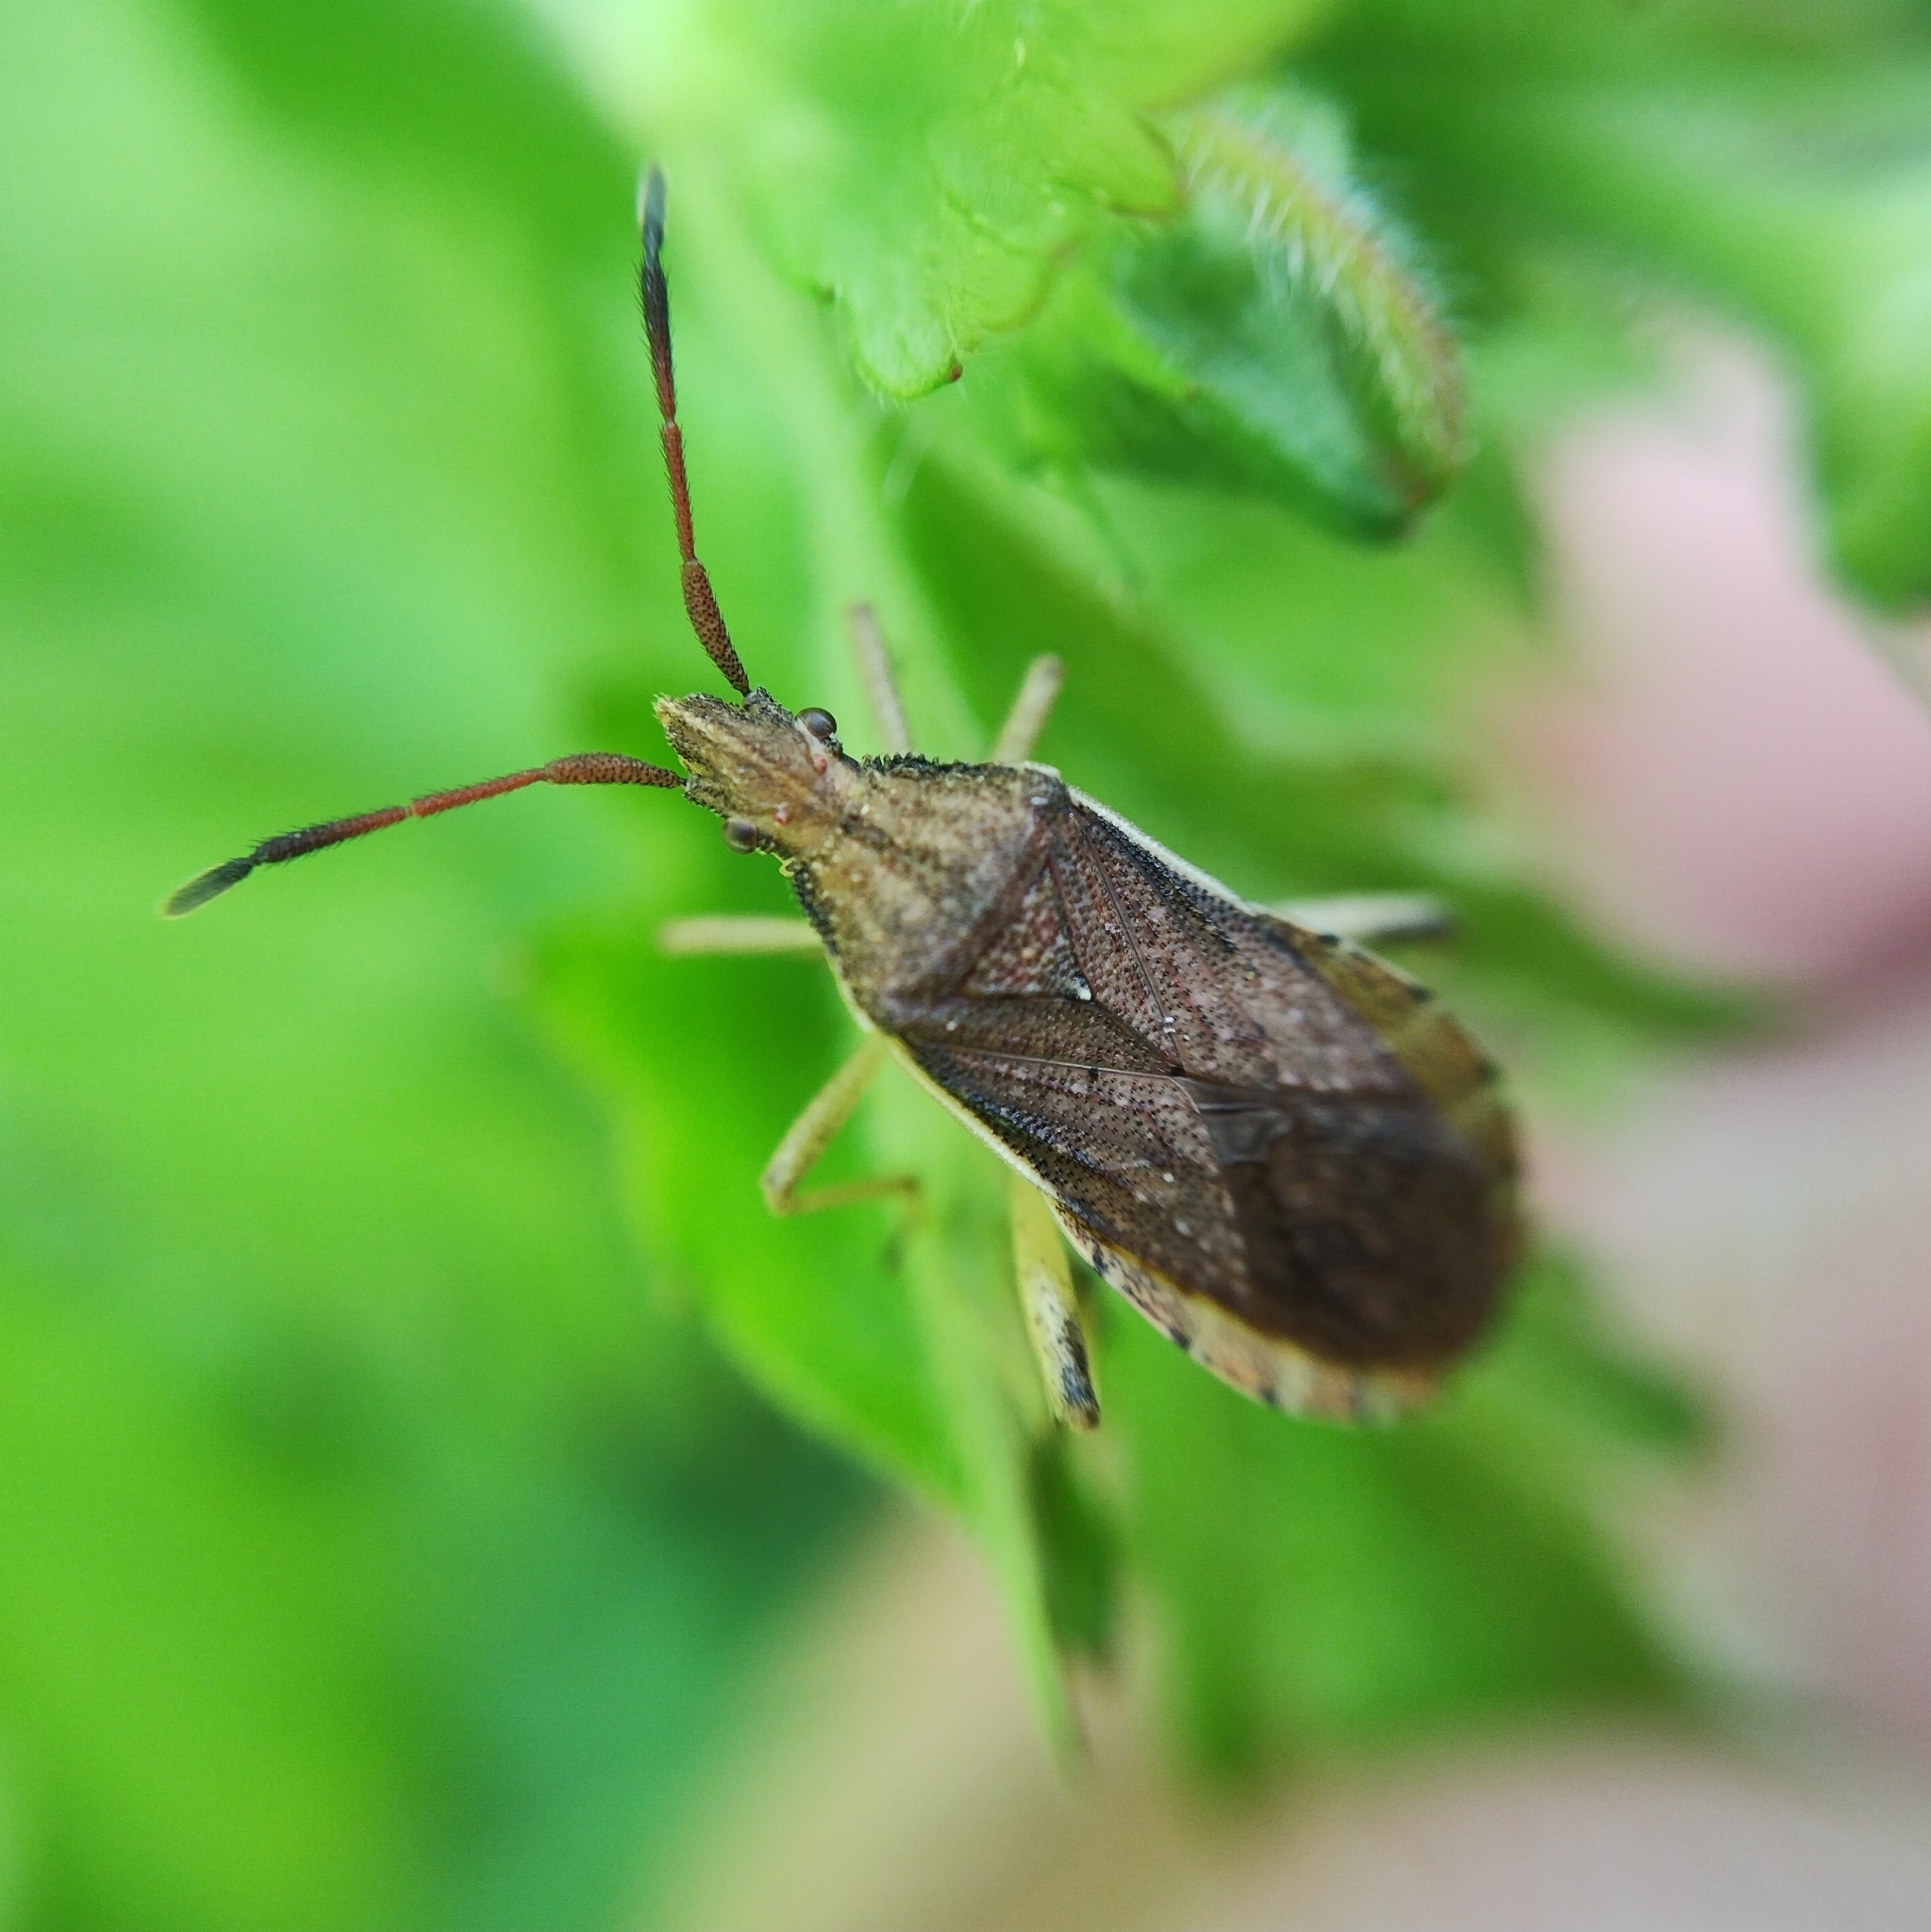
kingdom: Animalia
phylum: Arthropoda
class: Insecta
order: Hemiptera
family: Coreidae
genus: Ceraleptus
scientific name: Ceraleptus lividus
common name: Slender-horned leatherbug
